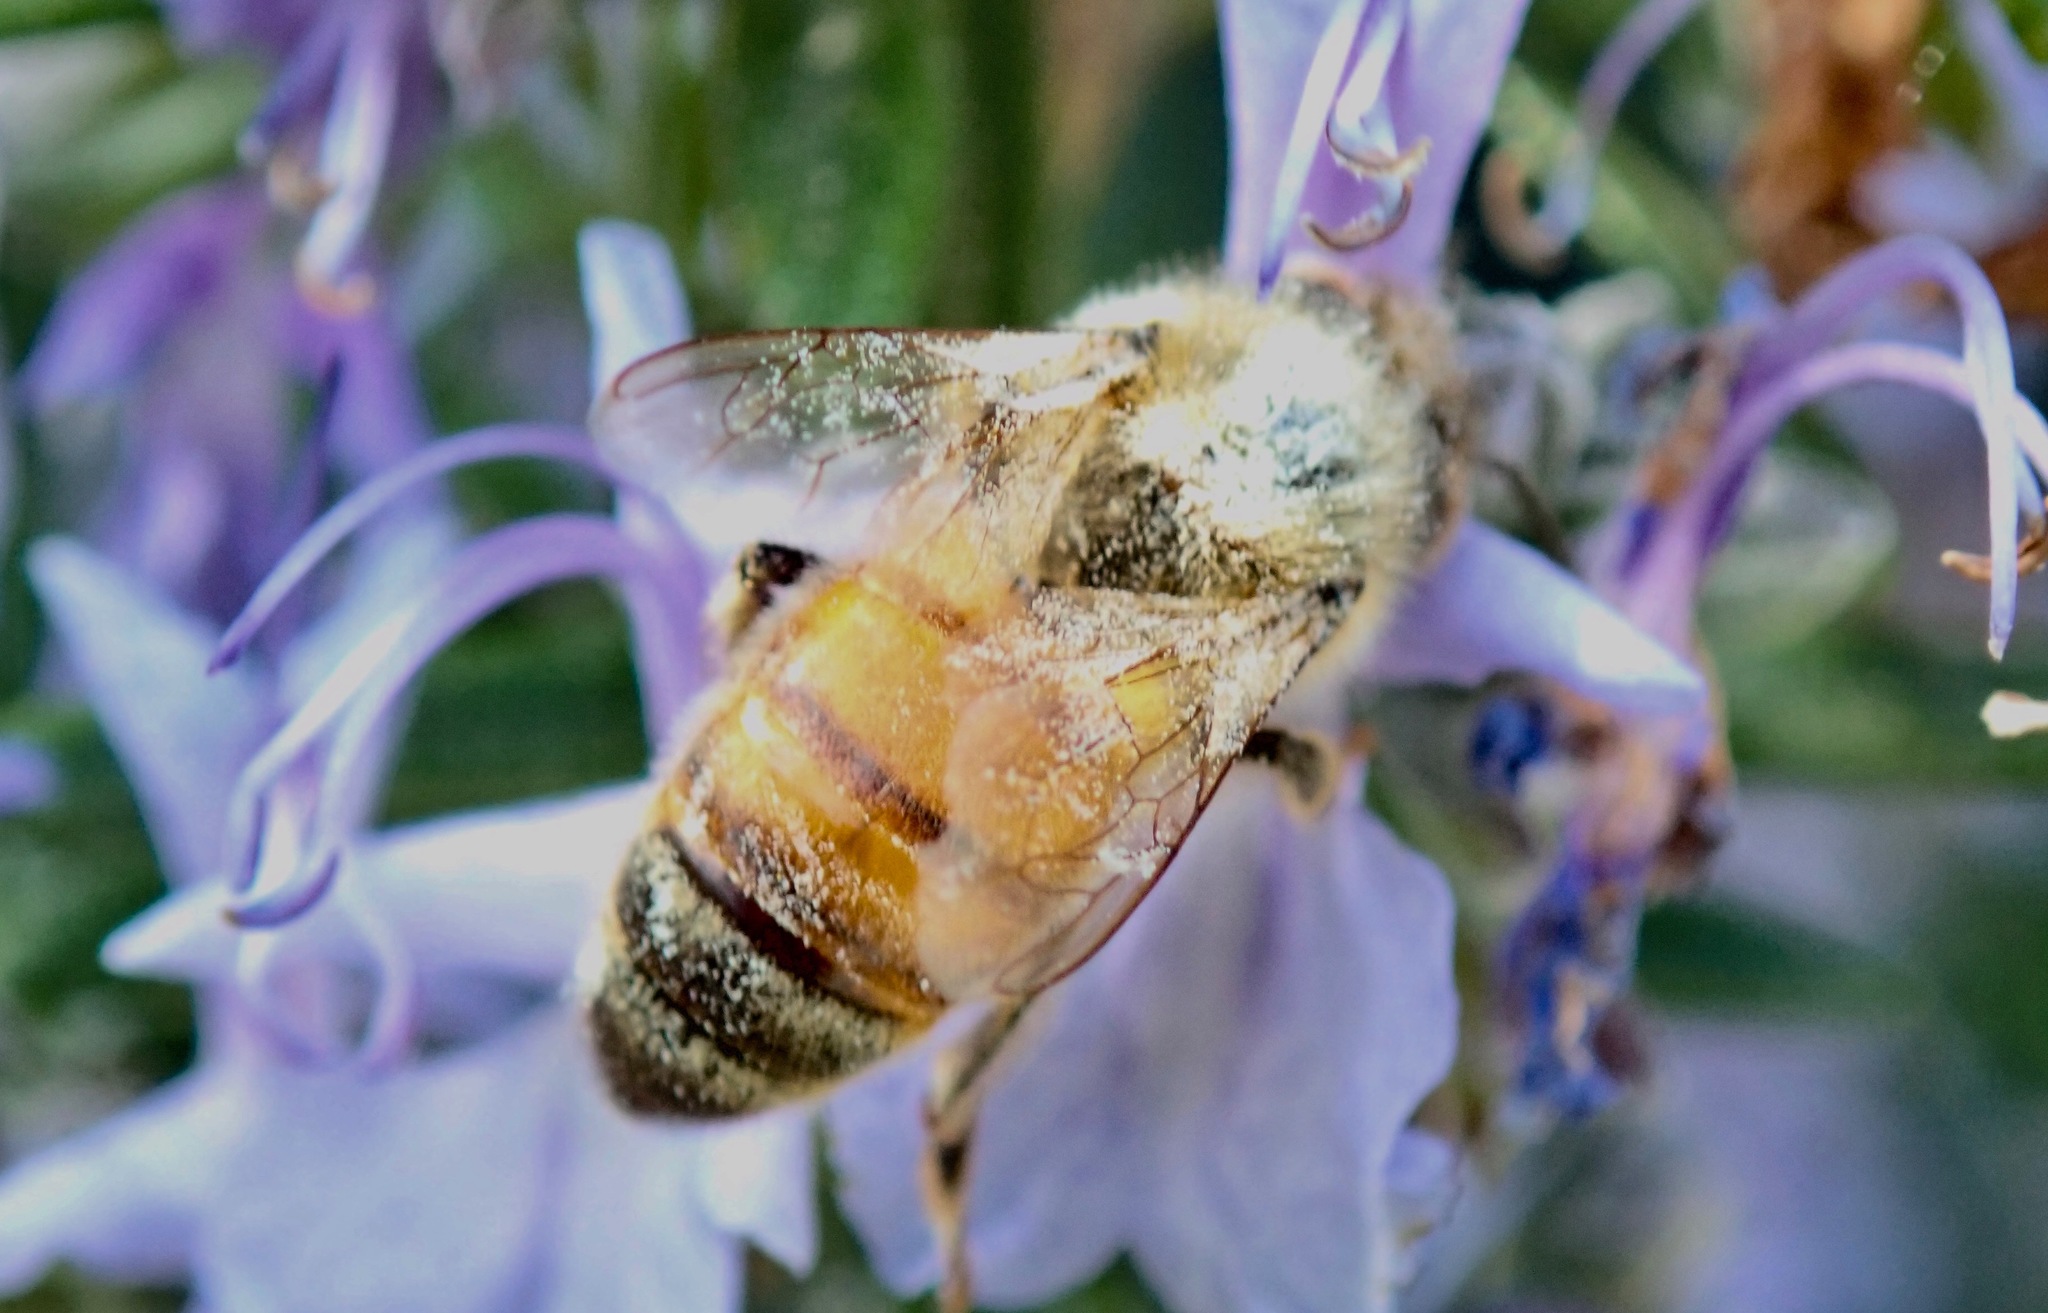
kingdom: Animalia
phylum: Arthropoda
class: Insecta
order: Hymenoptera
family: Apidae
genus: Apis
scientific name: Apis mellifera
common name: Honey bee
